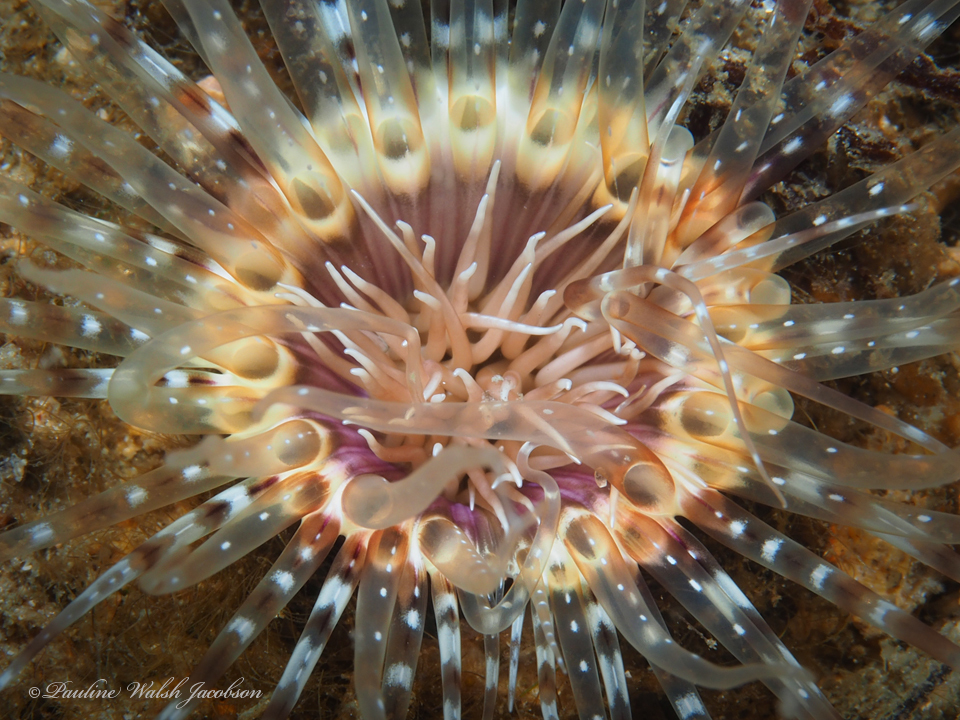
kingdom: Animalia
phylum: Cnidaria
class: Anthozoa
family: Cerianthidae
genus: Ceriantheopsis
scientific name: Ceriantheopsis americana
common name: American tube-dwelling anemone
